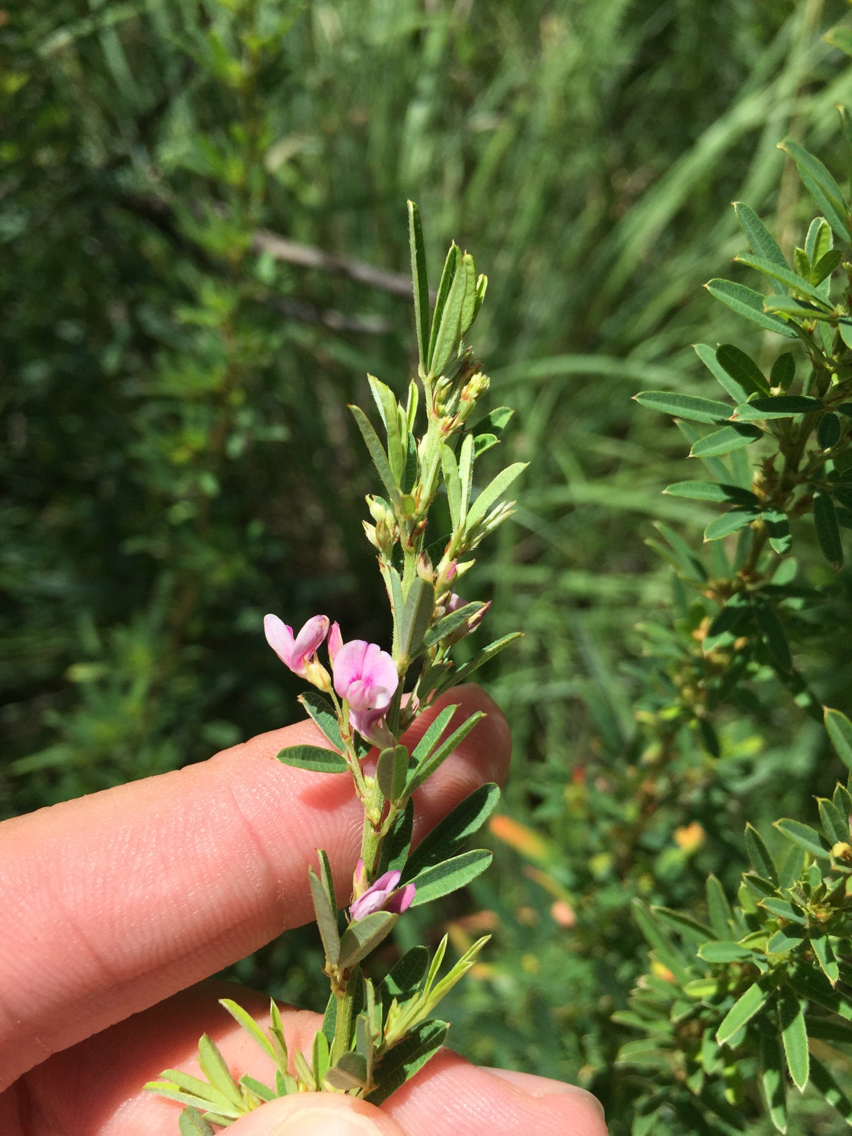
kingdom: Plantae
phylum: Tracheophyta
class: Magnoliopsida
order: Fabales
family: Fabaceae
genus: Lespedeza
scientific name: Lespedeza virginica
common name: Slender bush-clover
